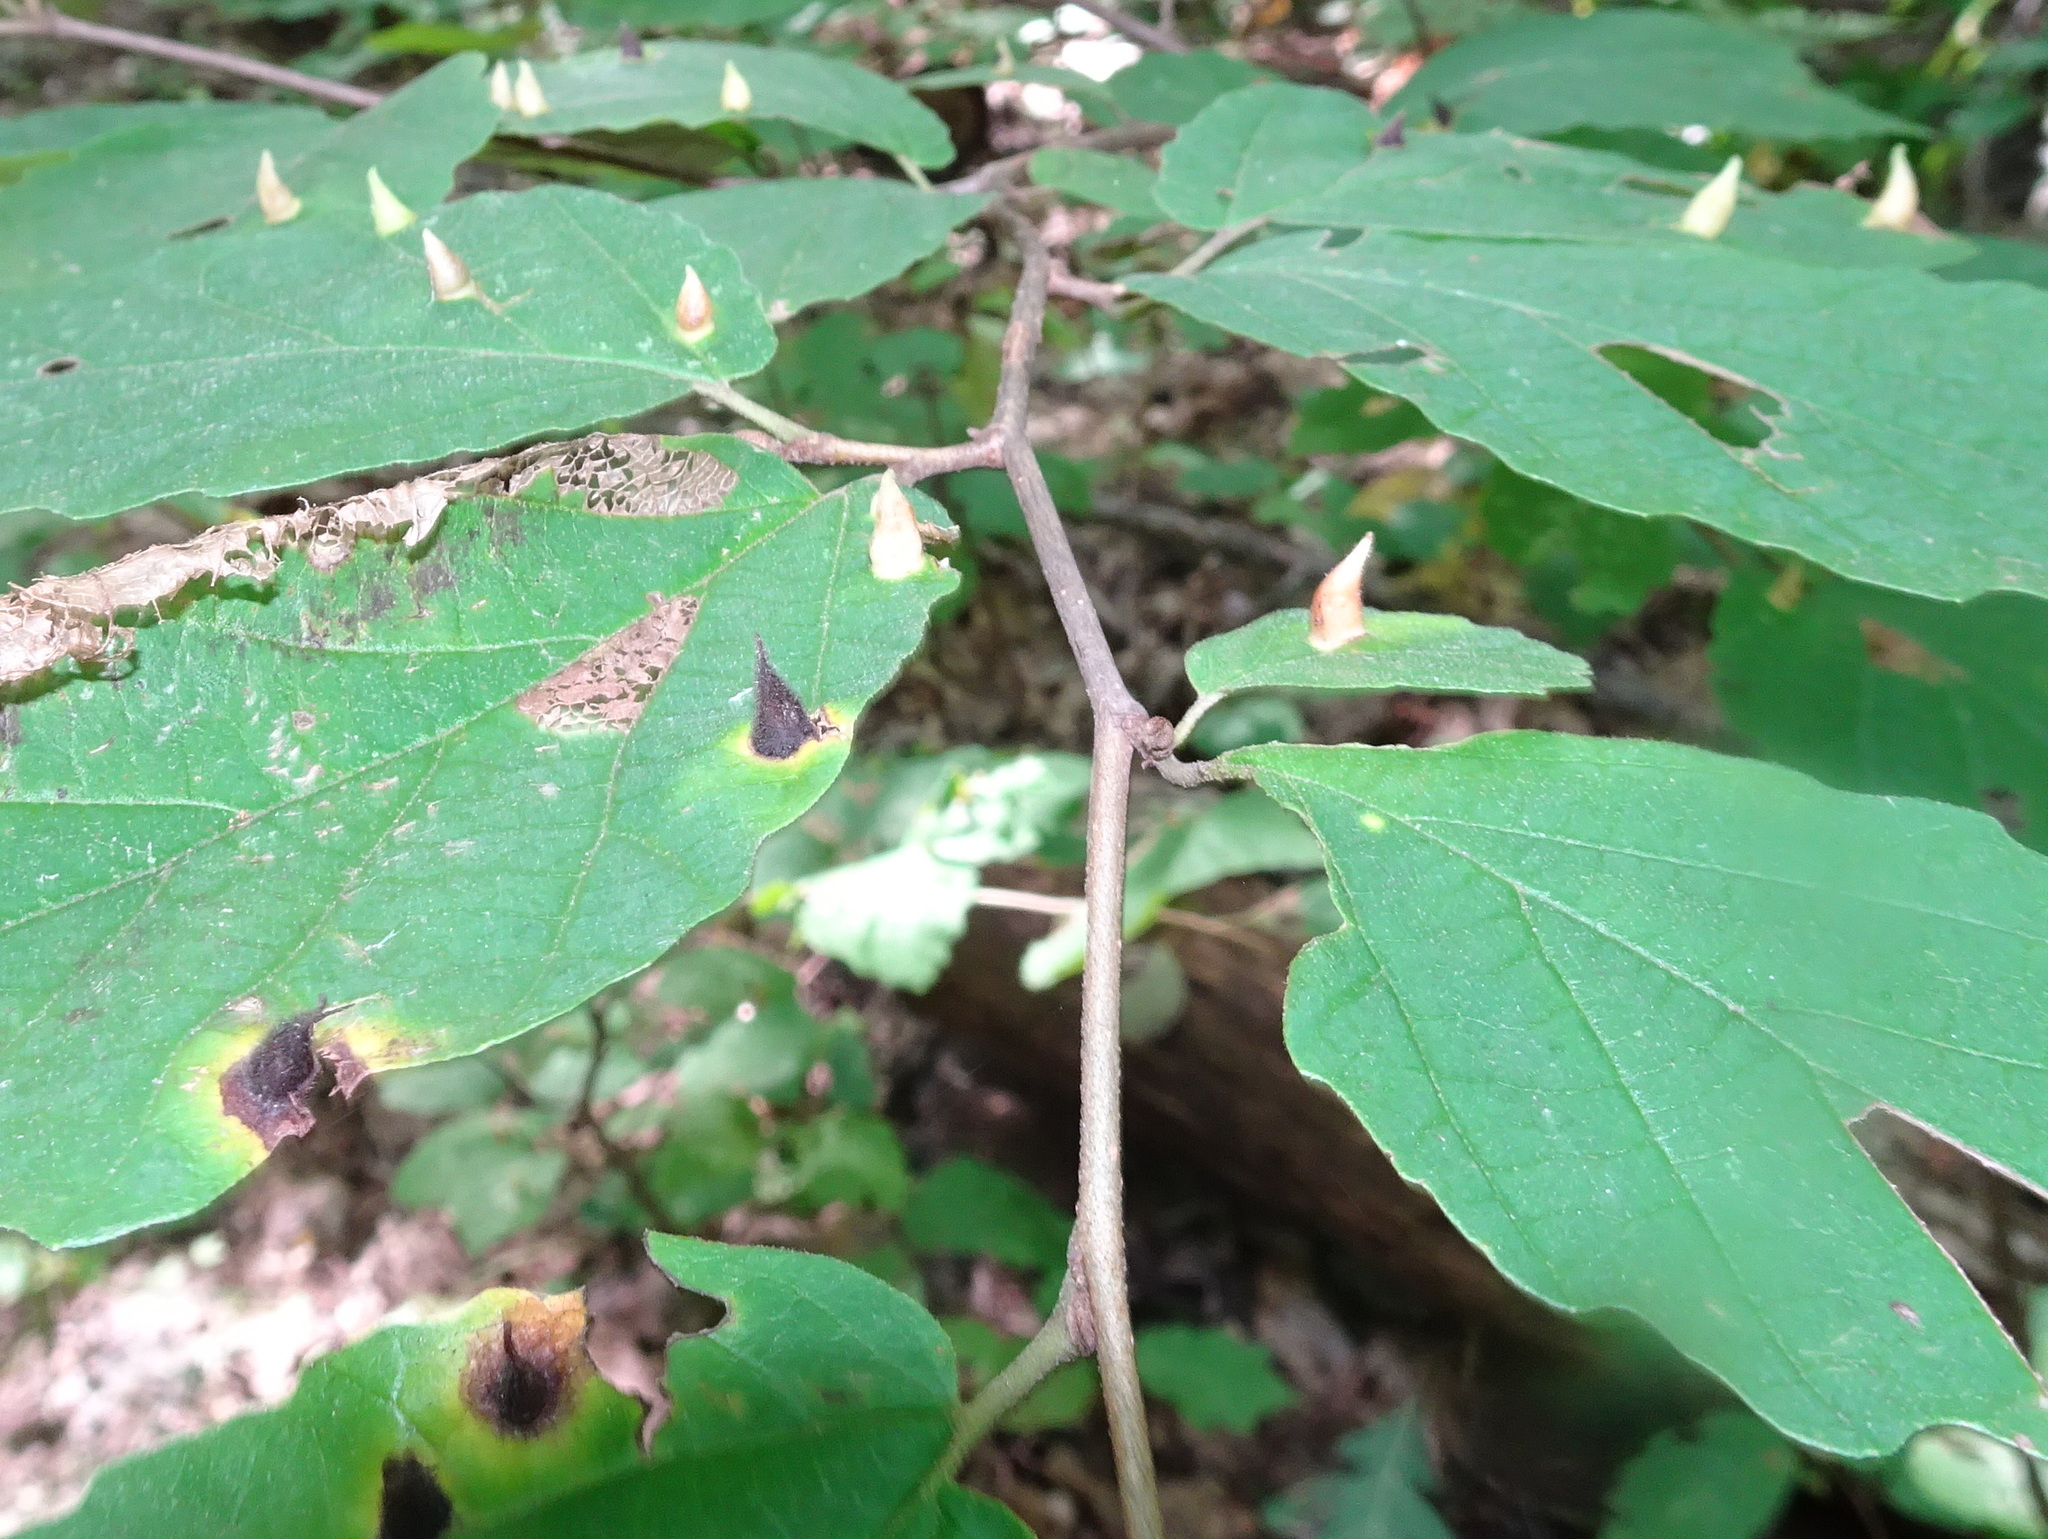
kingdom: Animalia
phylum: Arthropoda
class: Insecta
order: Hemiptera
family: Aphididae
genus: Hormaphis
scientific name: Hormaphis hamamelidis
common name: Witch-hazel cone gall aphid
